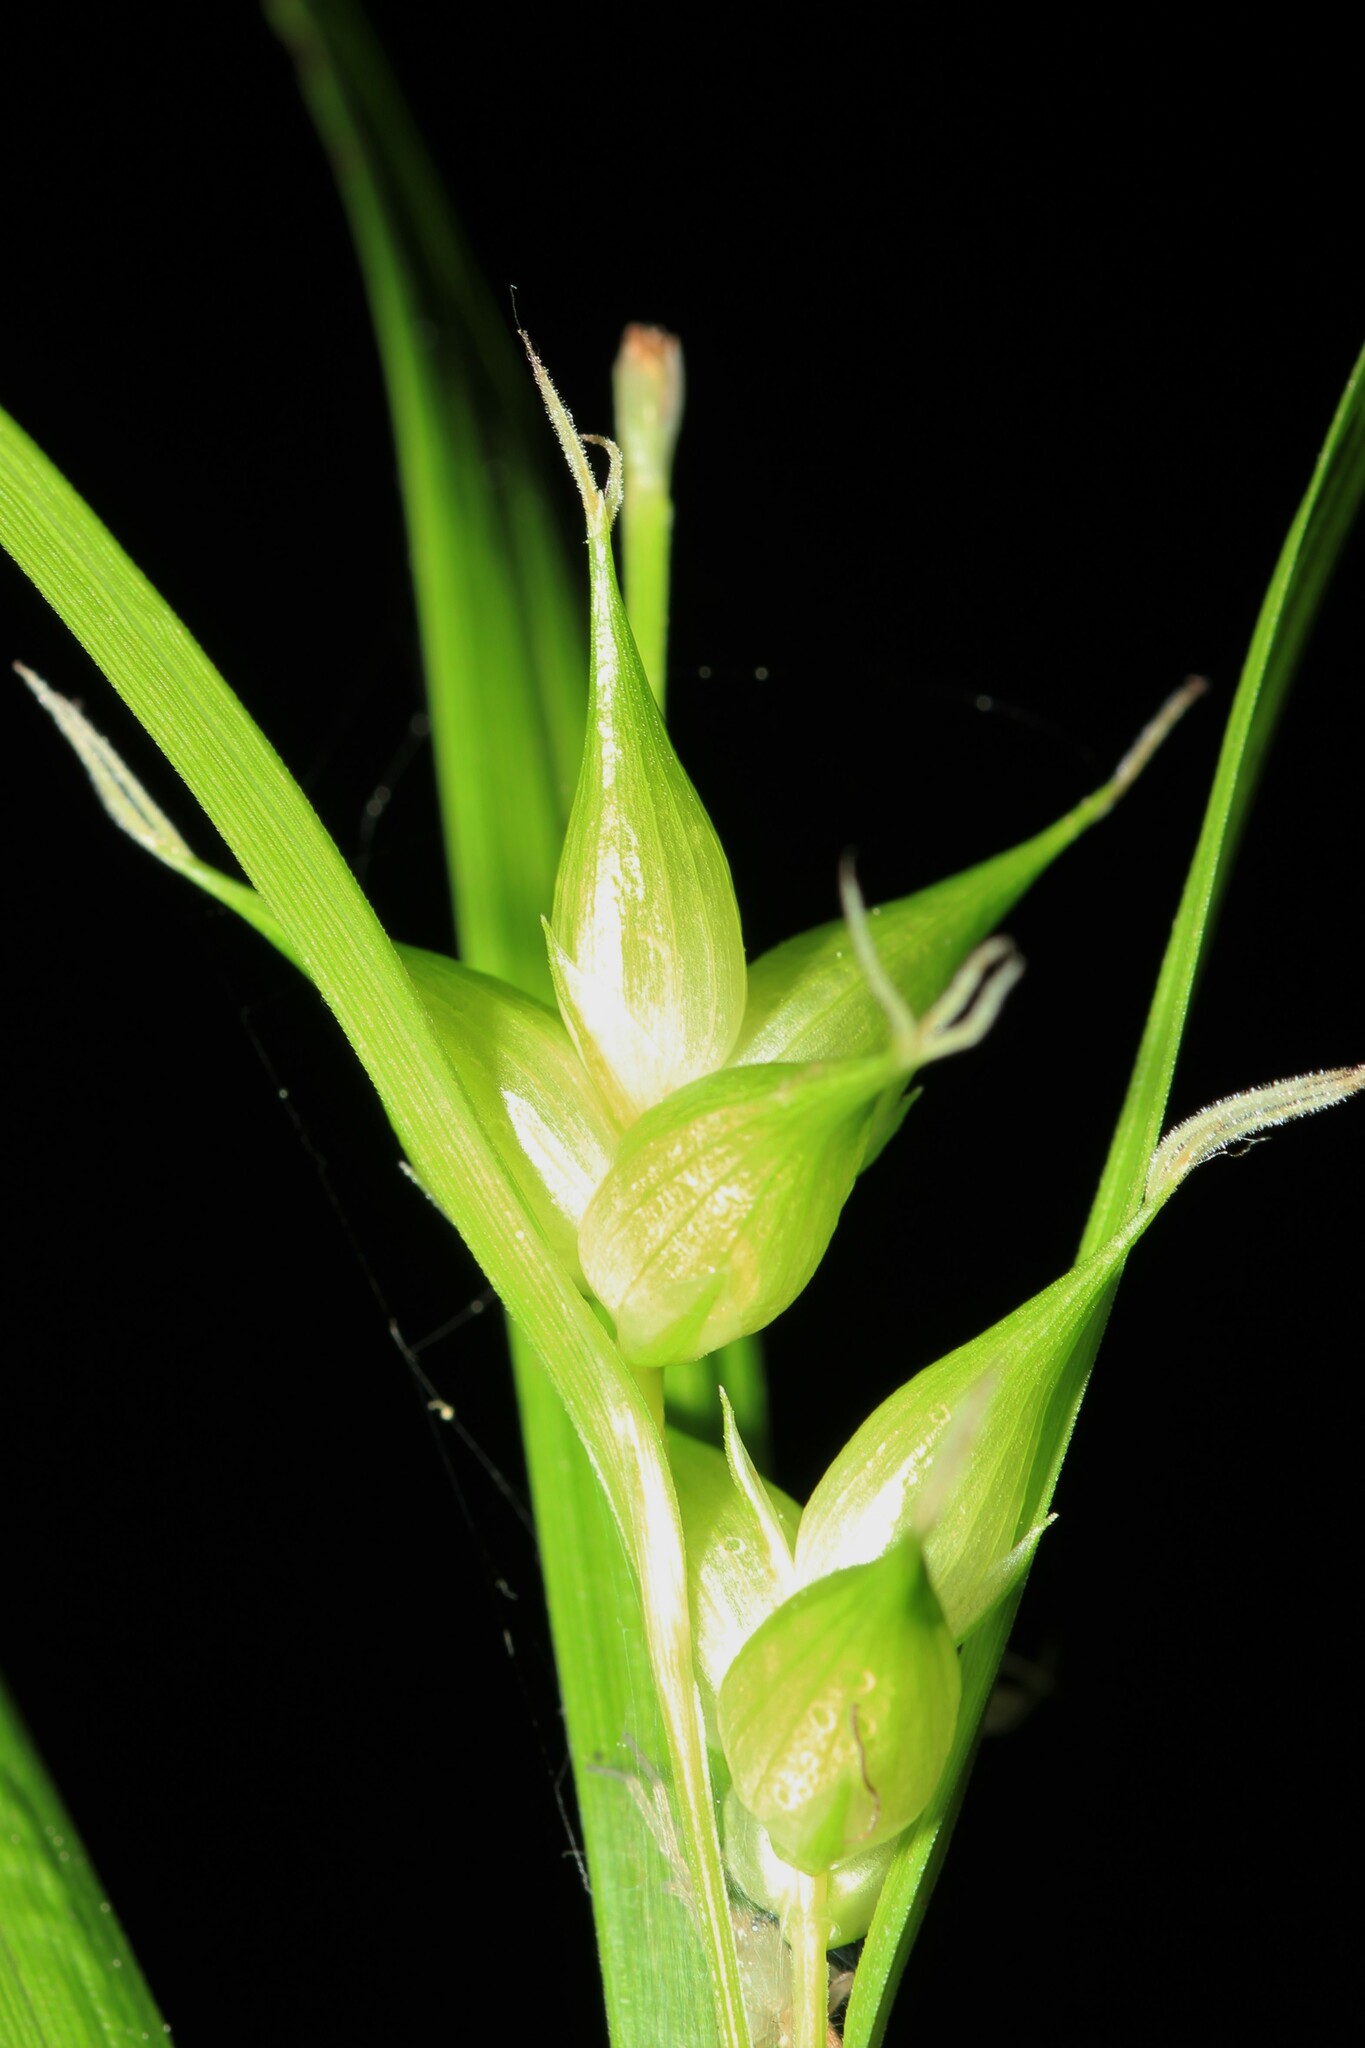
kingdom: Plantae
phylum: Tracheophyta
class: Liliopsida
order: Poales
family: Cyperaceae
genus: Carex
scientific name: Carex intumescens
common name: Greater bladder sedge
